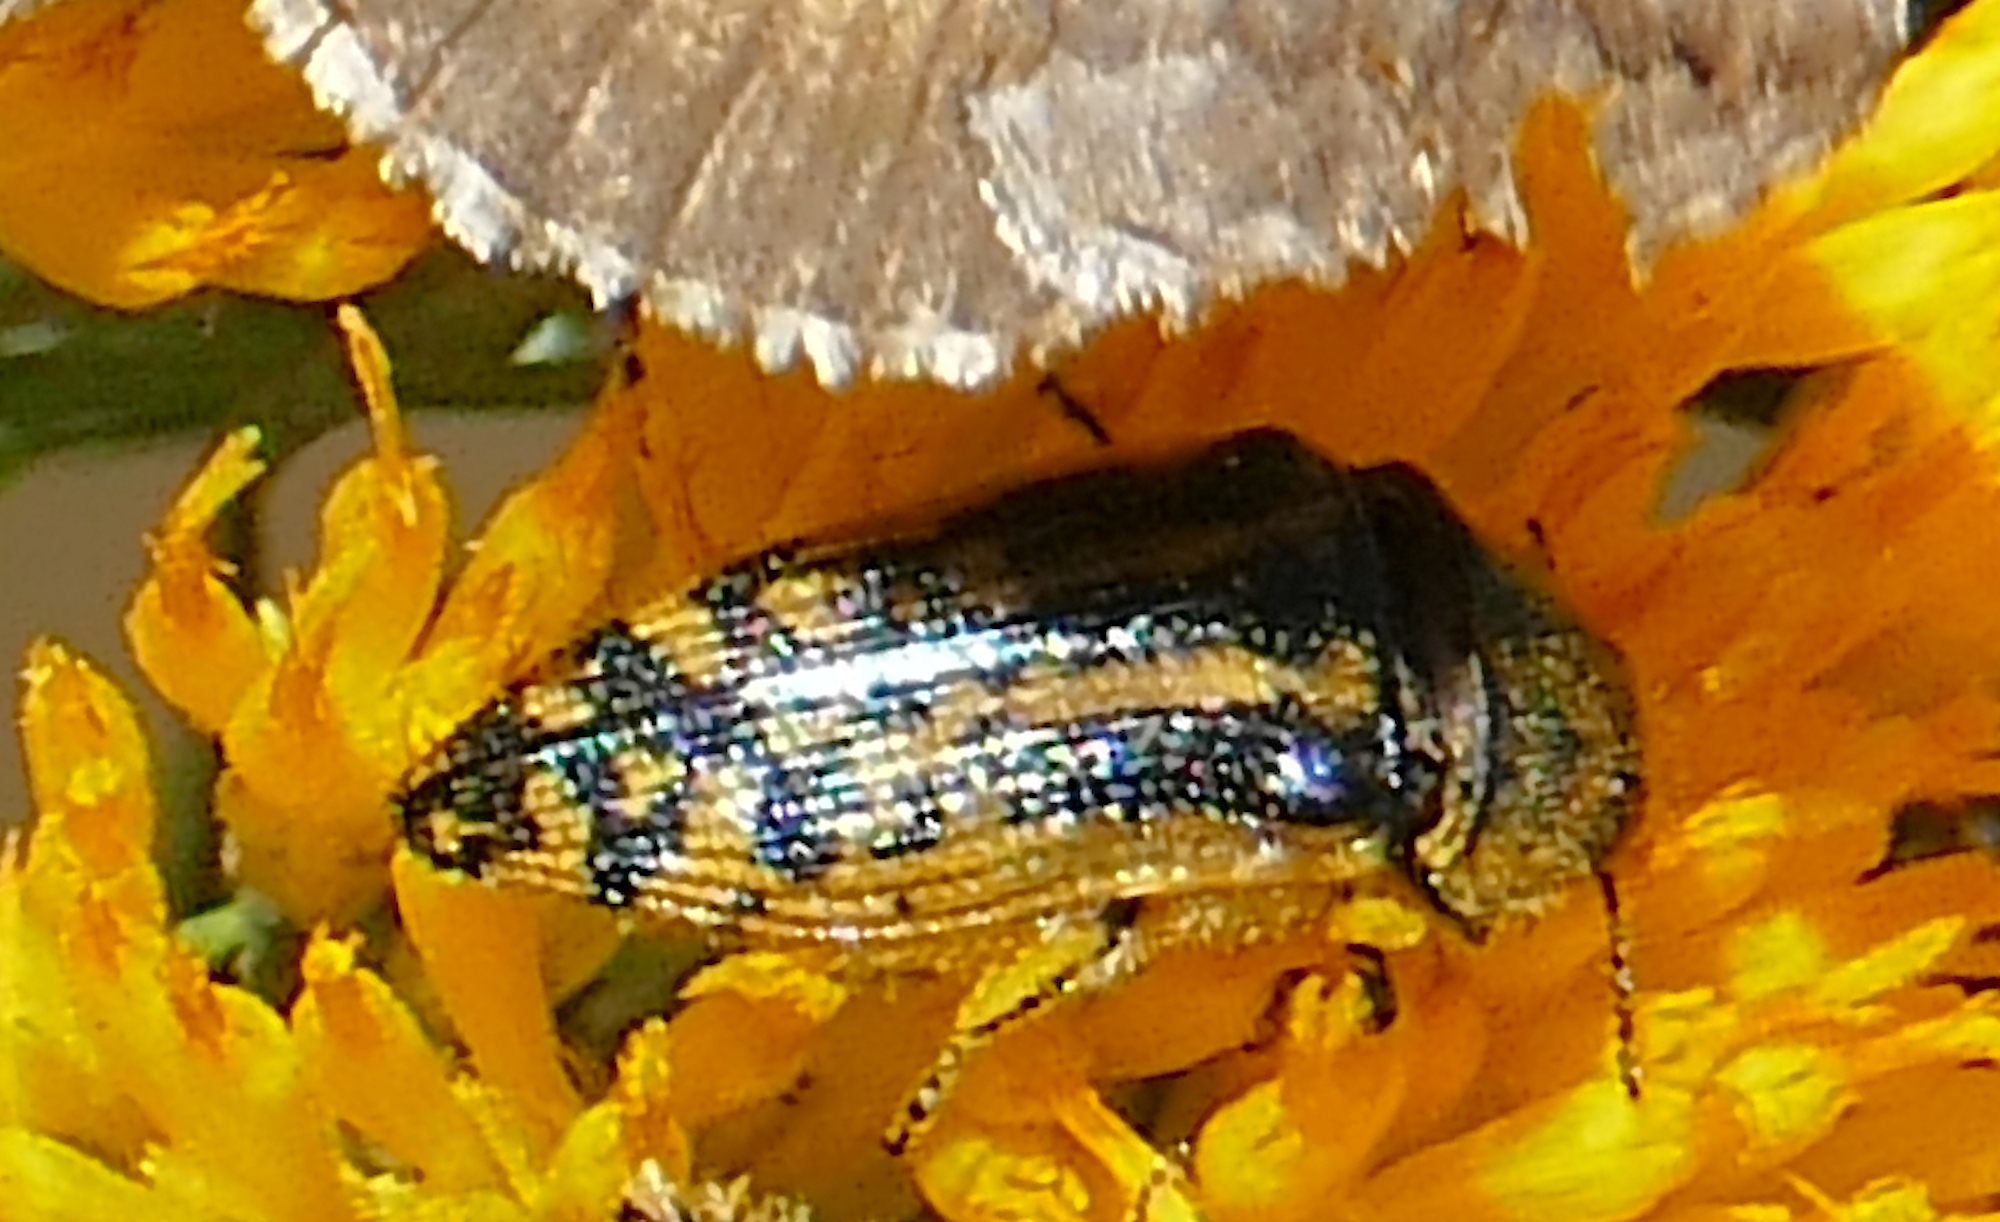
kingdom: Animalia
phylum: Arthropoda
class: Insecta
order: Coleoptera
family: Buprestidae
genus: Acmaeodera
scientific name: Acmaeodera amplicollis
